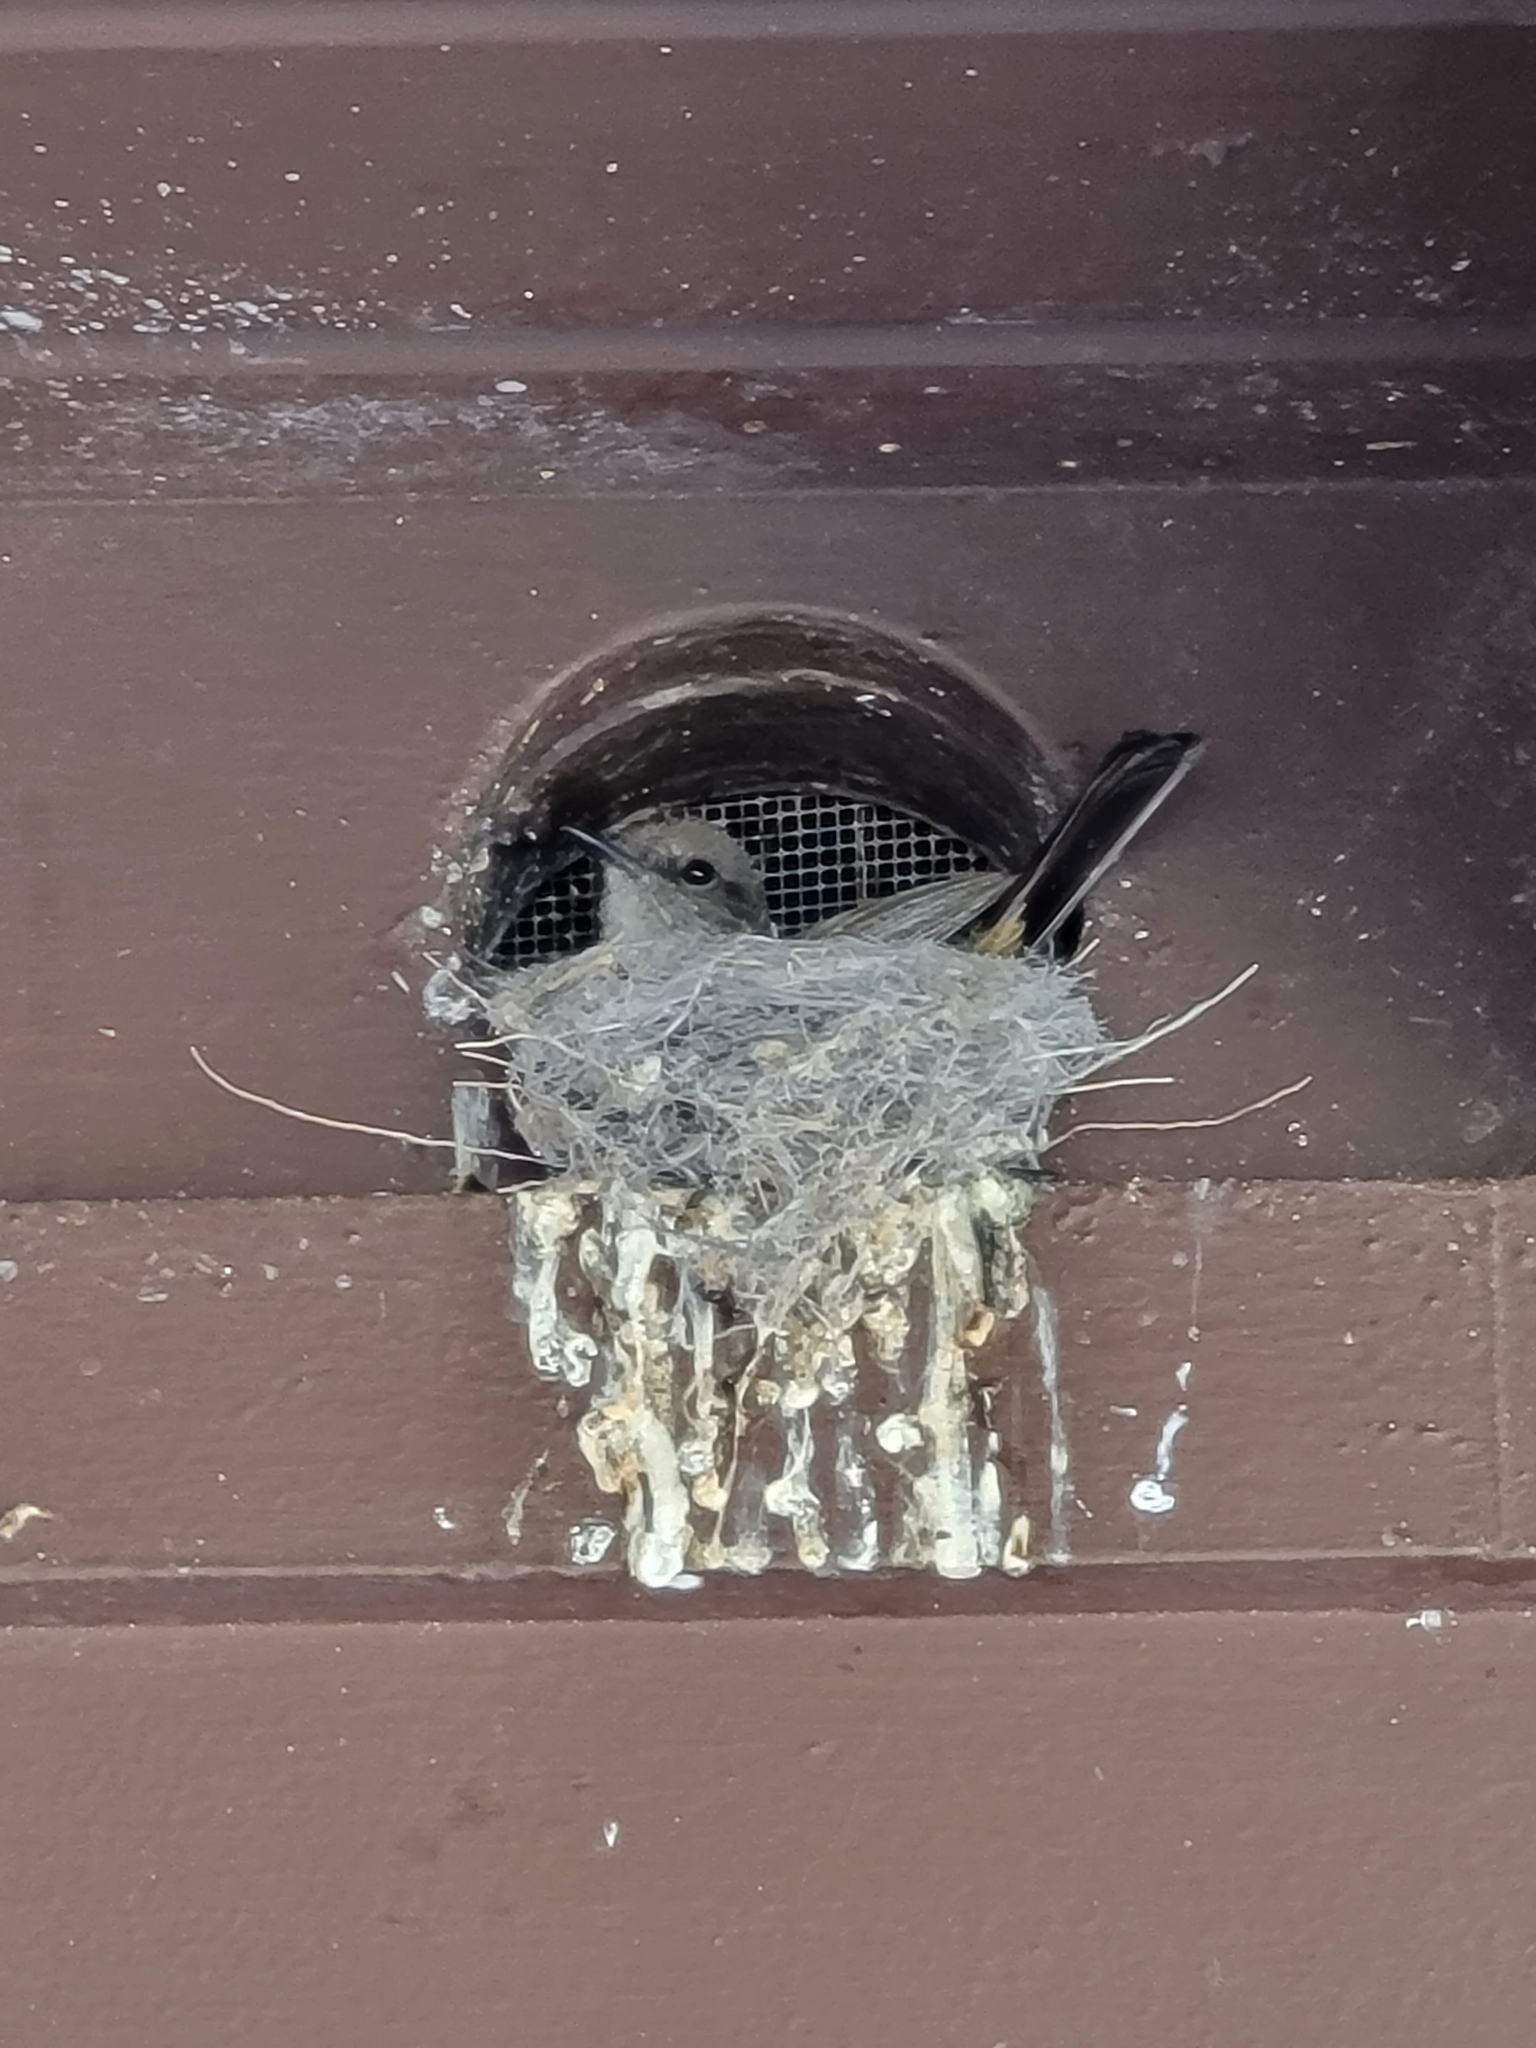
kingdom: Animalia
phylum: Chordata
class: Aves
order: Passeriformes
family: Tyrannidae
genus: Sayornis
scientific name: Sayornis saya
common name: Say's phoebe
